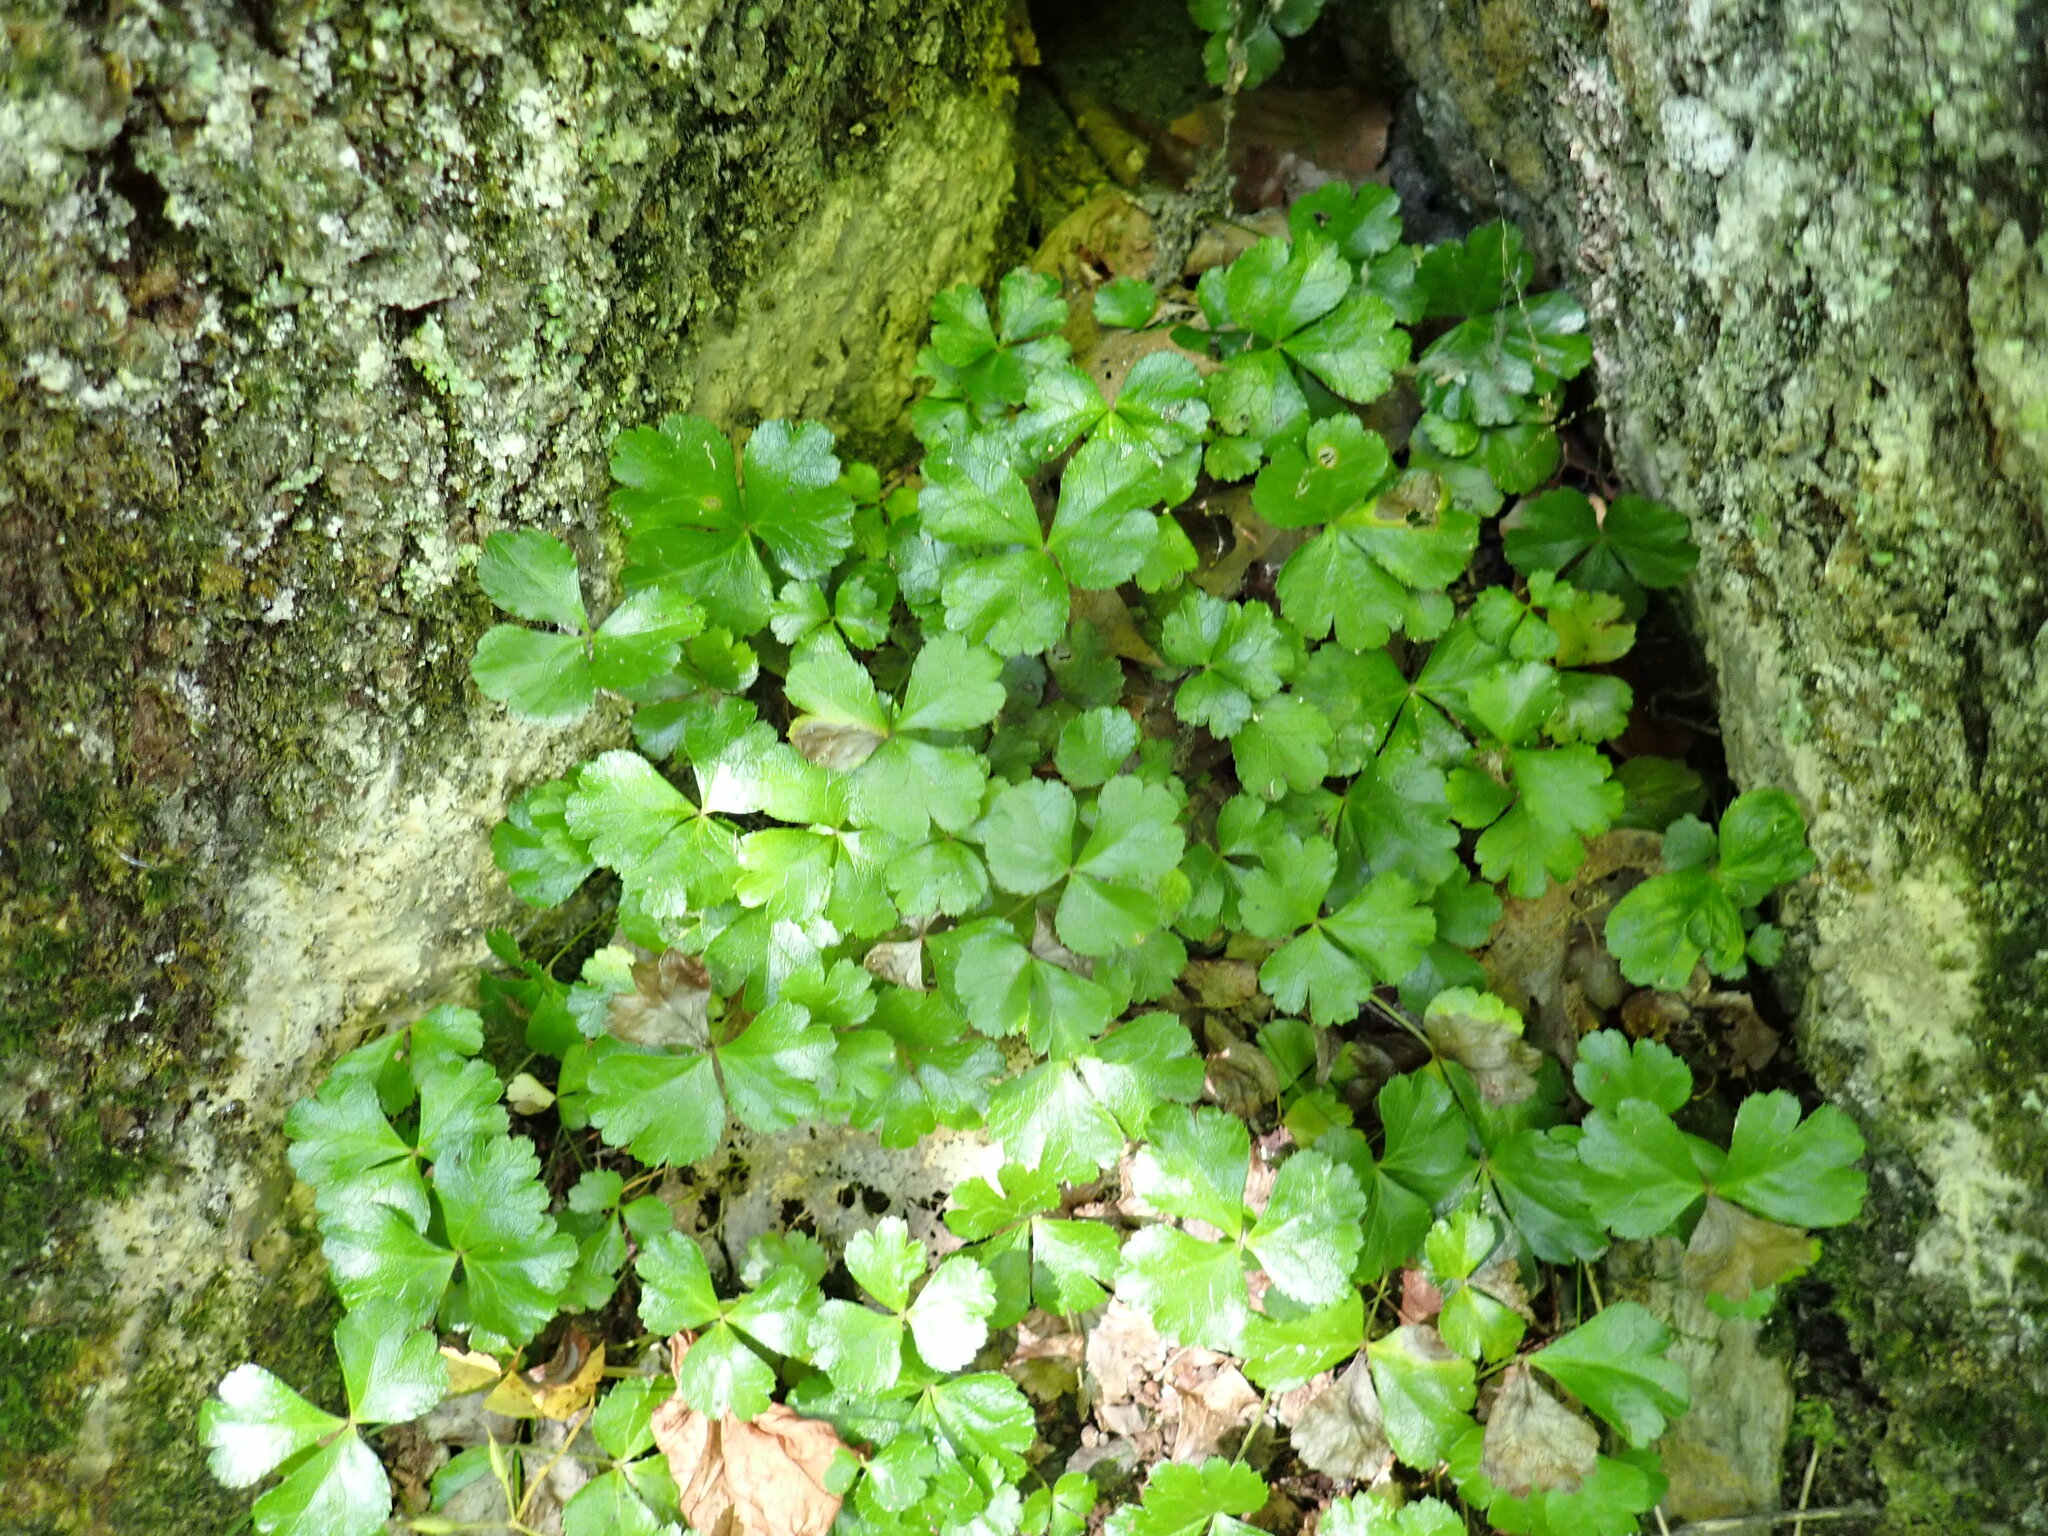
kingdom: Plantae
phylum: Tracheophyta
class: Magnoliopsida
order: Ranunculales
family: Ranunculaceae
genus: Coptis
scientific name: Coptis trifolia
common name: Canker-root
